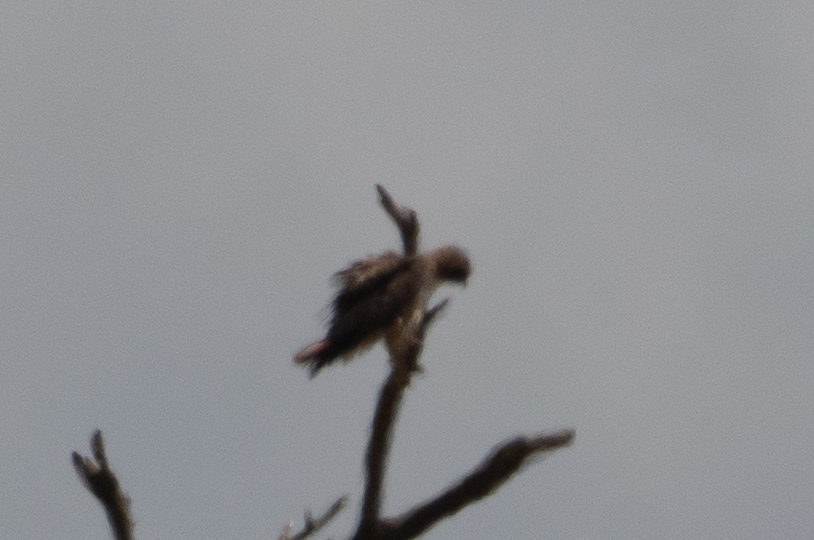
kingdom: Animalia
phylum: Chordata
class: Aves
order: Accipitriformes
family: Accipitridae
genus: Buteo
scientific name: Buteo jamaicensis
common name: Red-tailed hawk
